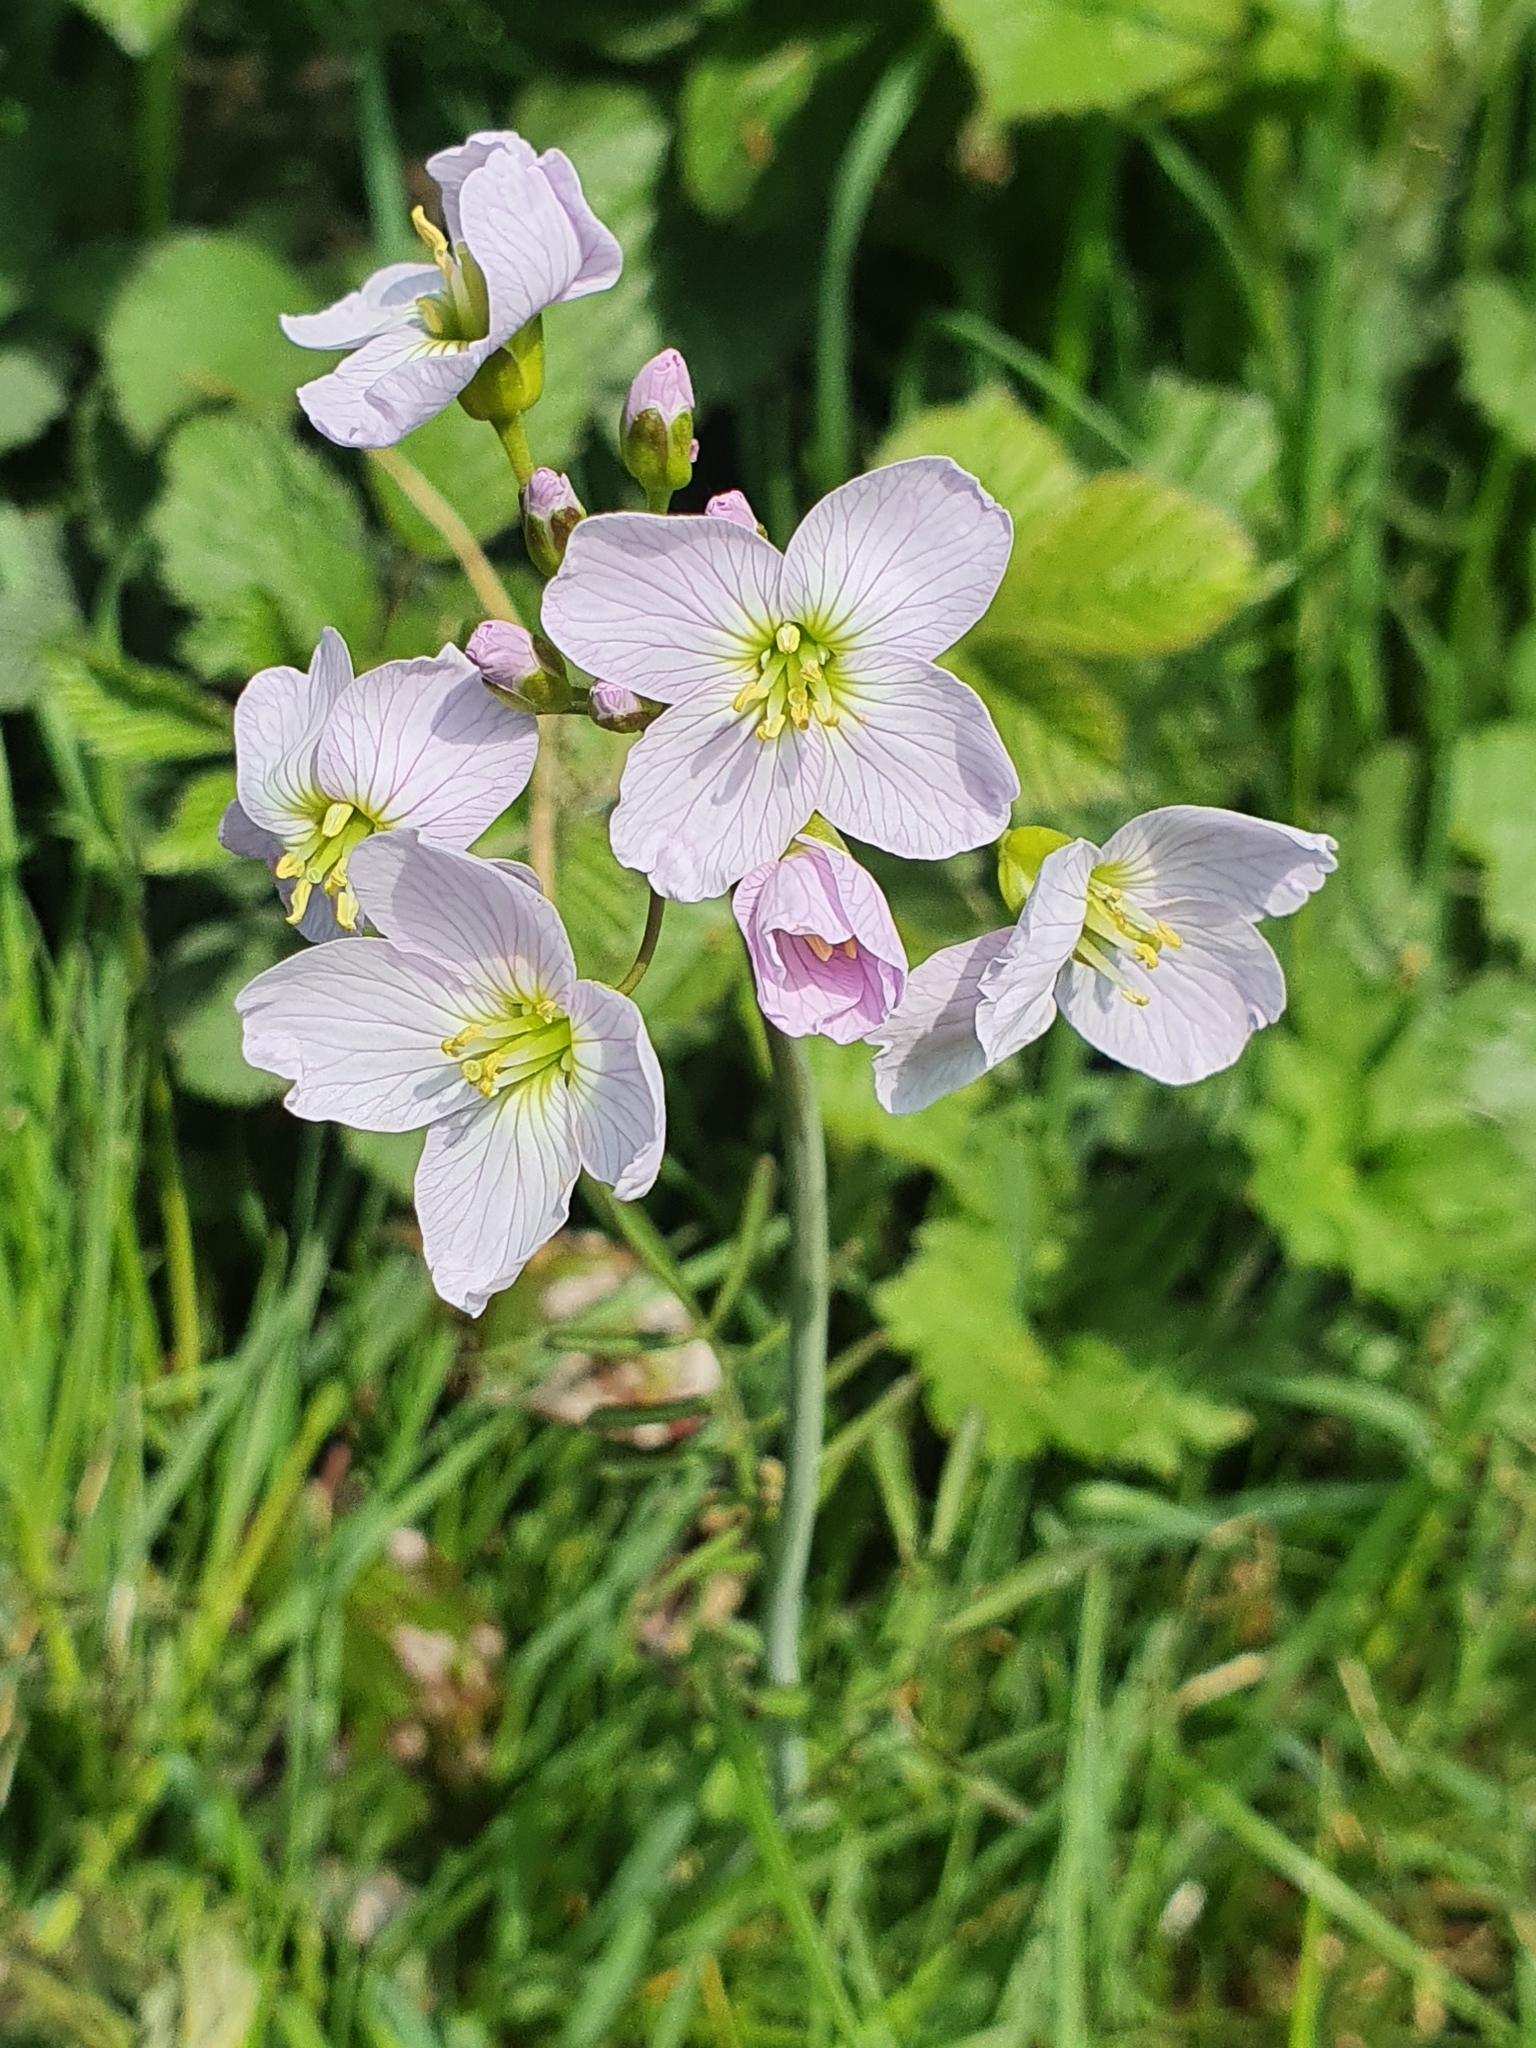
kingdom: Plantae
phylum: Tracheophyta
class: Magnoliopsida
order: Brassicales
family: Brassicaceae
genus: Cardamine
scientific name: Cardamine pratensis
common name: Cuckoo flower
